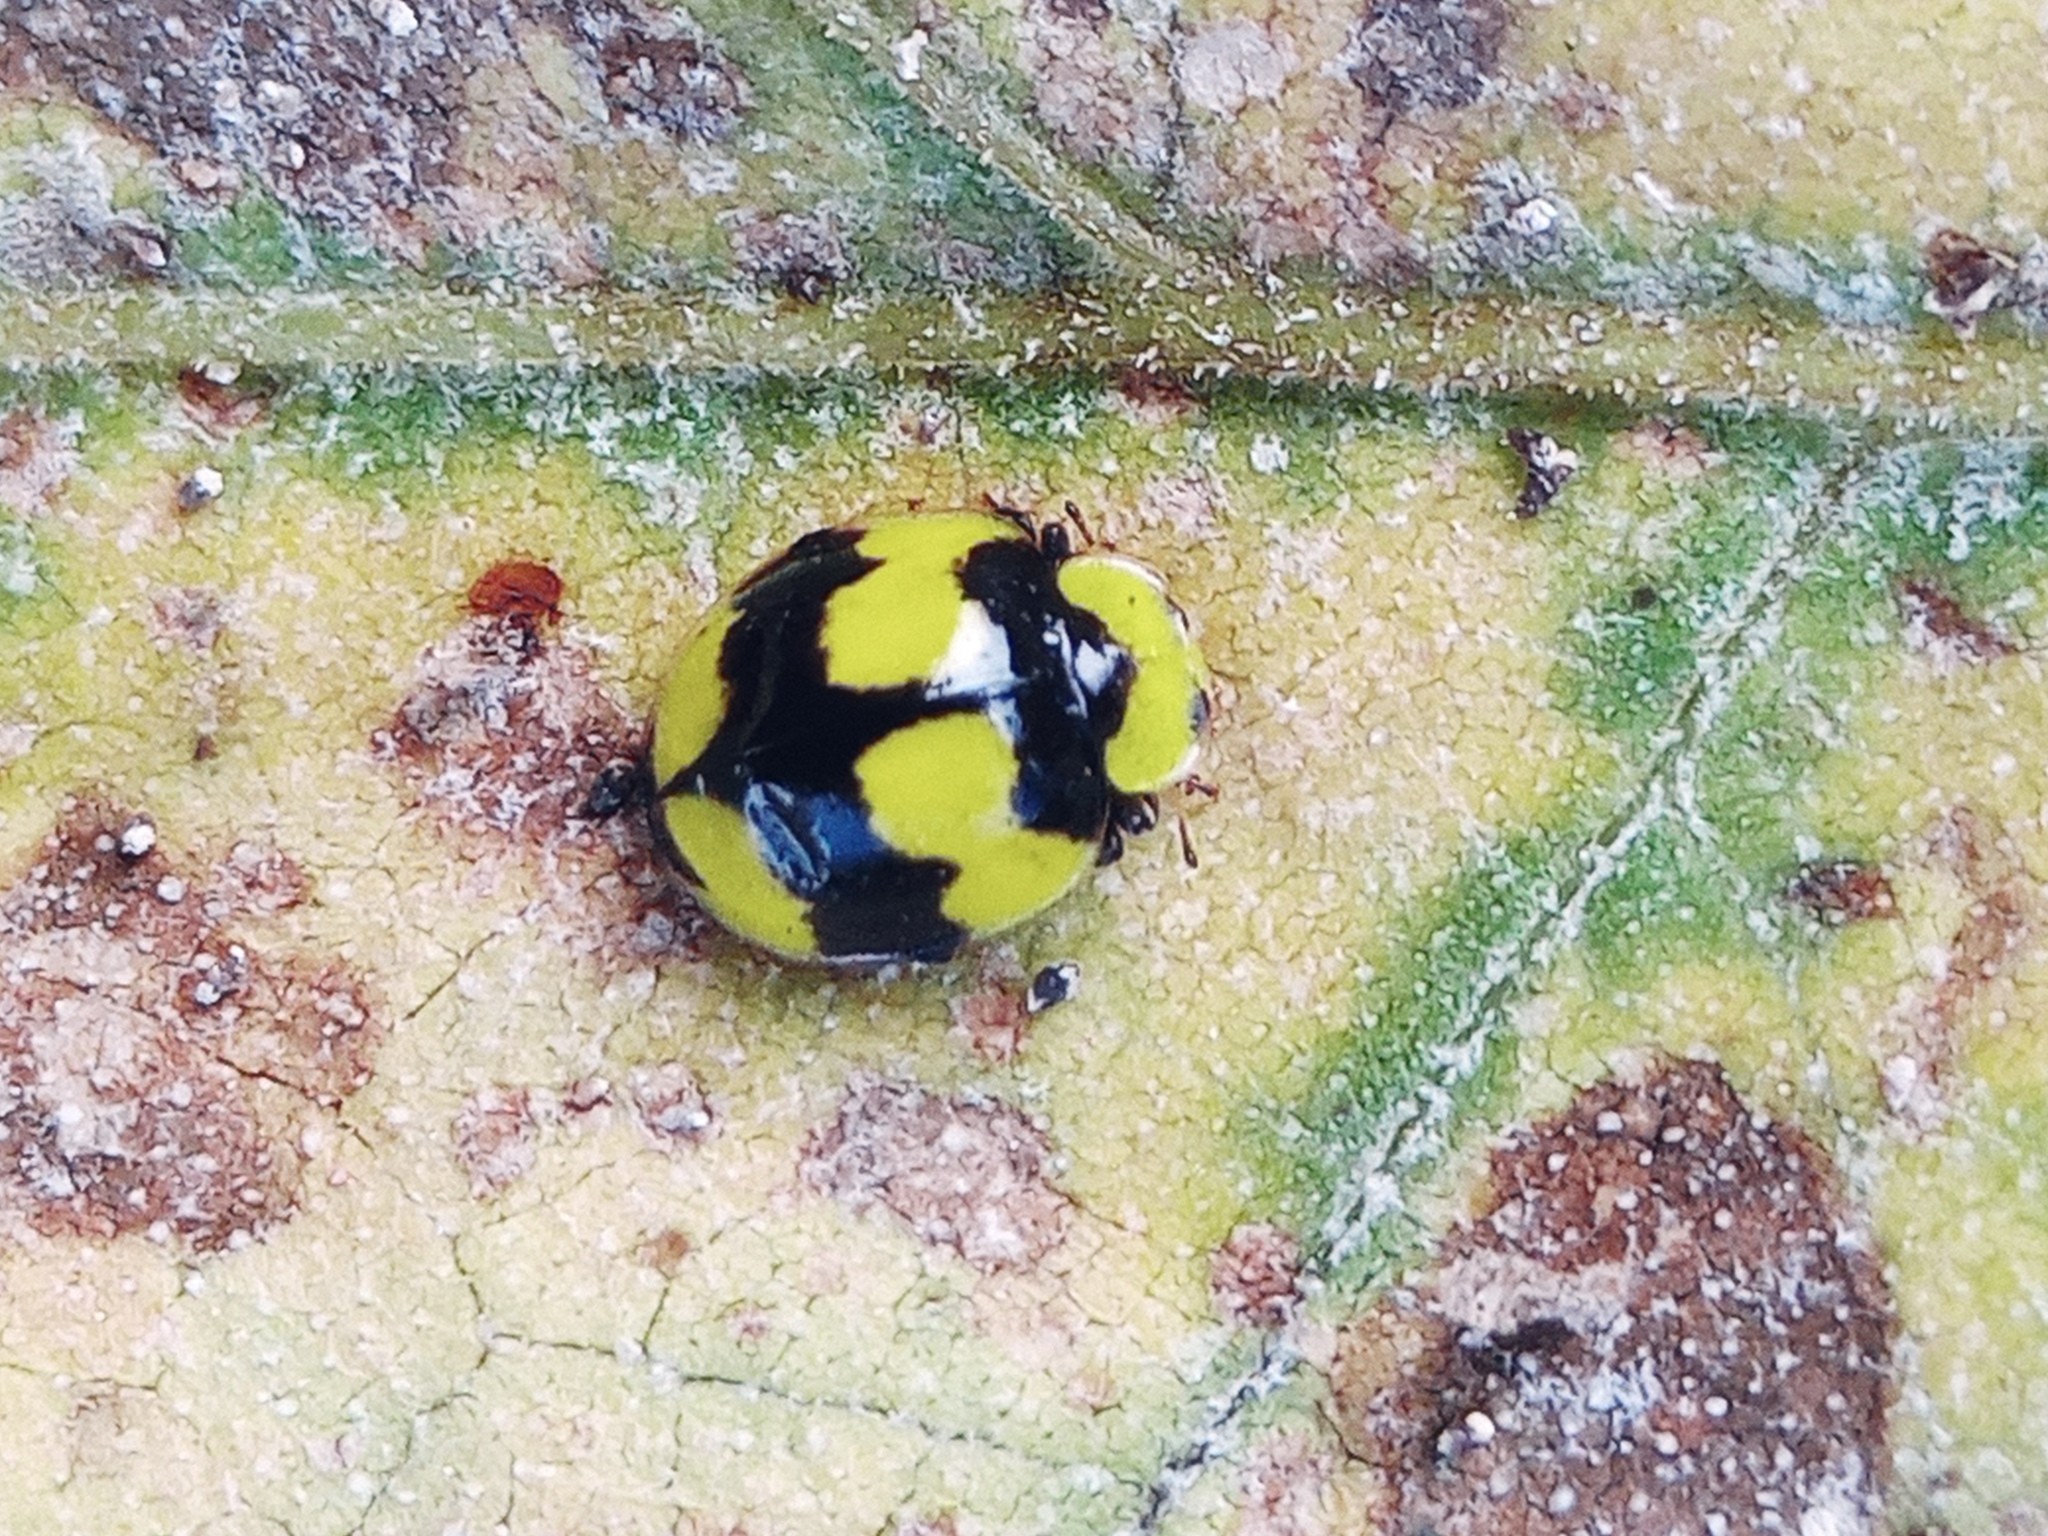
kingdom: Animalia
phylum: Arthropoda
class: Insecta
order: Coleoptera
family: Coccinellidae
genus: Illeis
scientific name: Illeis galbula
